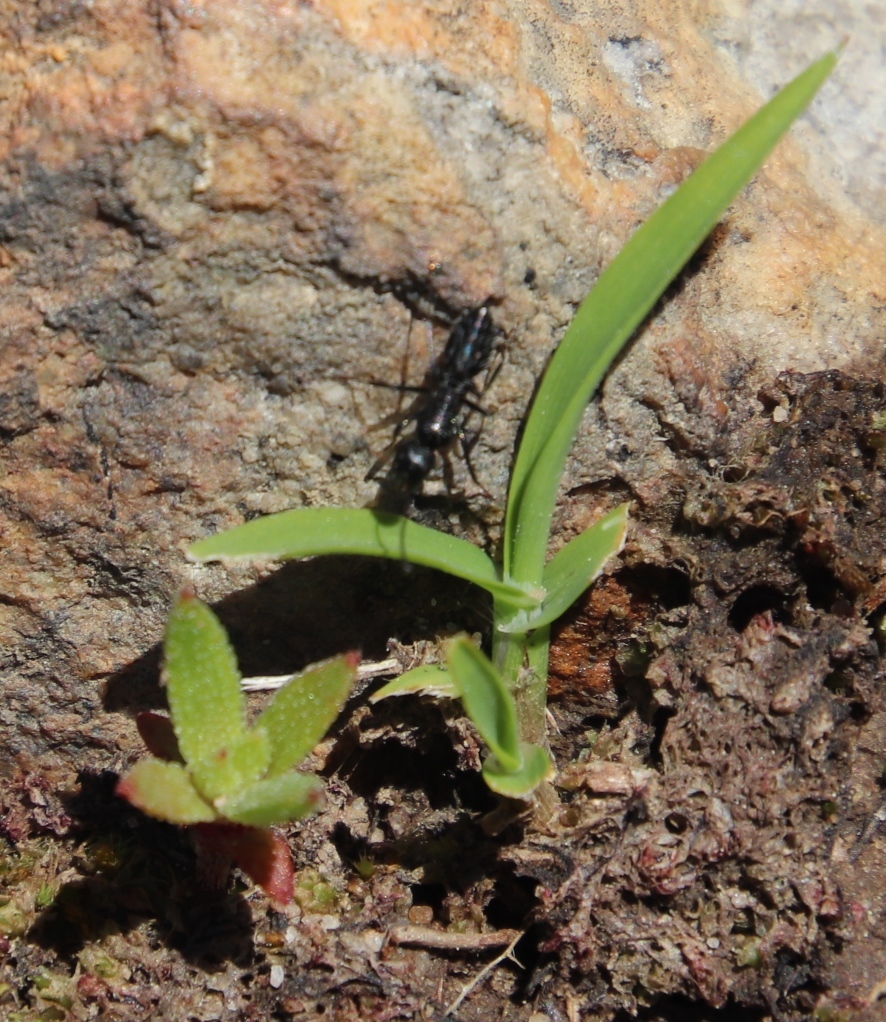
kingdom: Animalia
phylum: Arthropoda
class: Insecta
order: Hymenoptera
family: Formicidae
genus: Camponotus
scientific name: Camponotus niveosetosus
